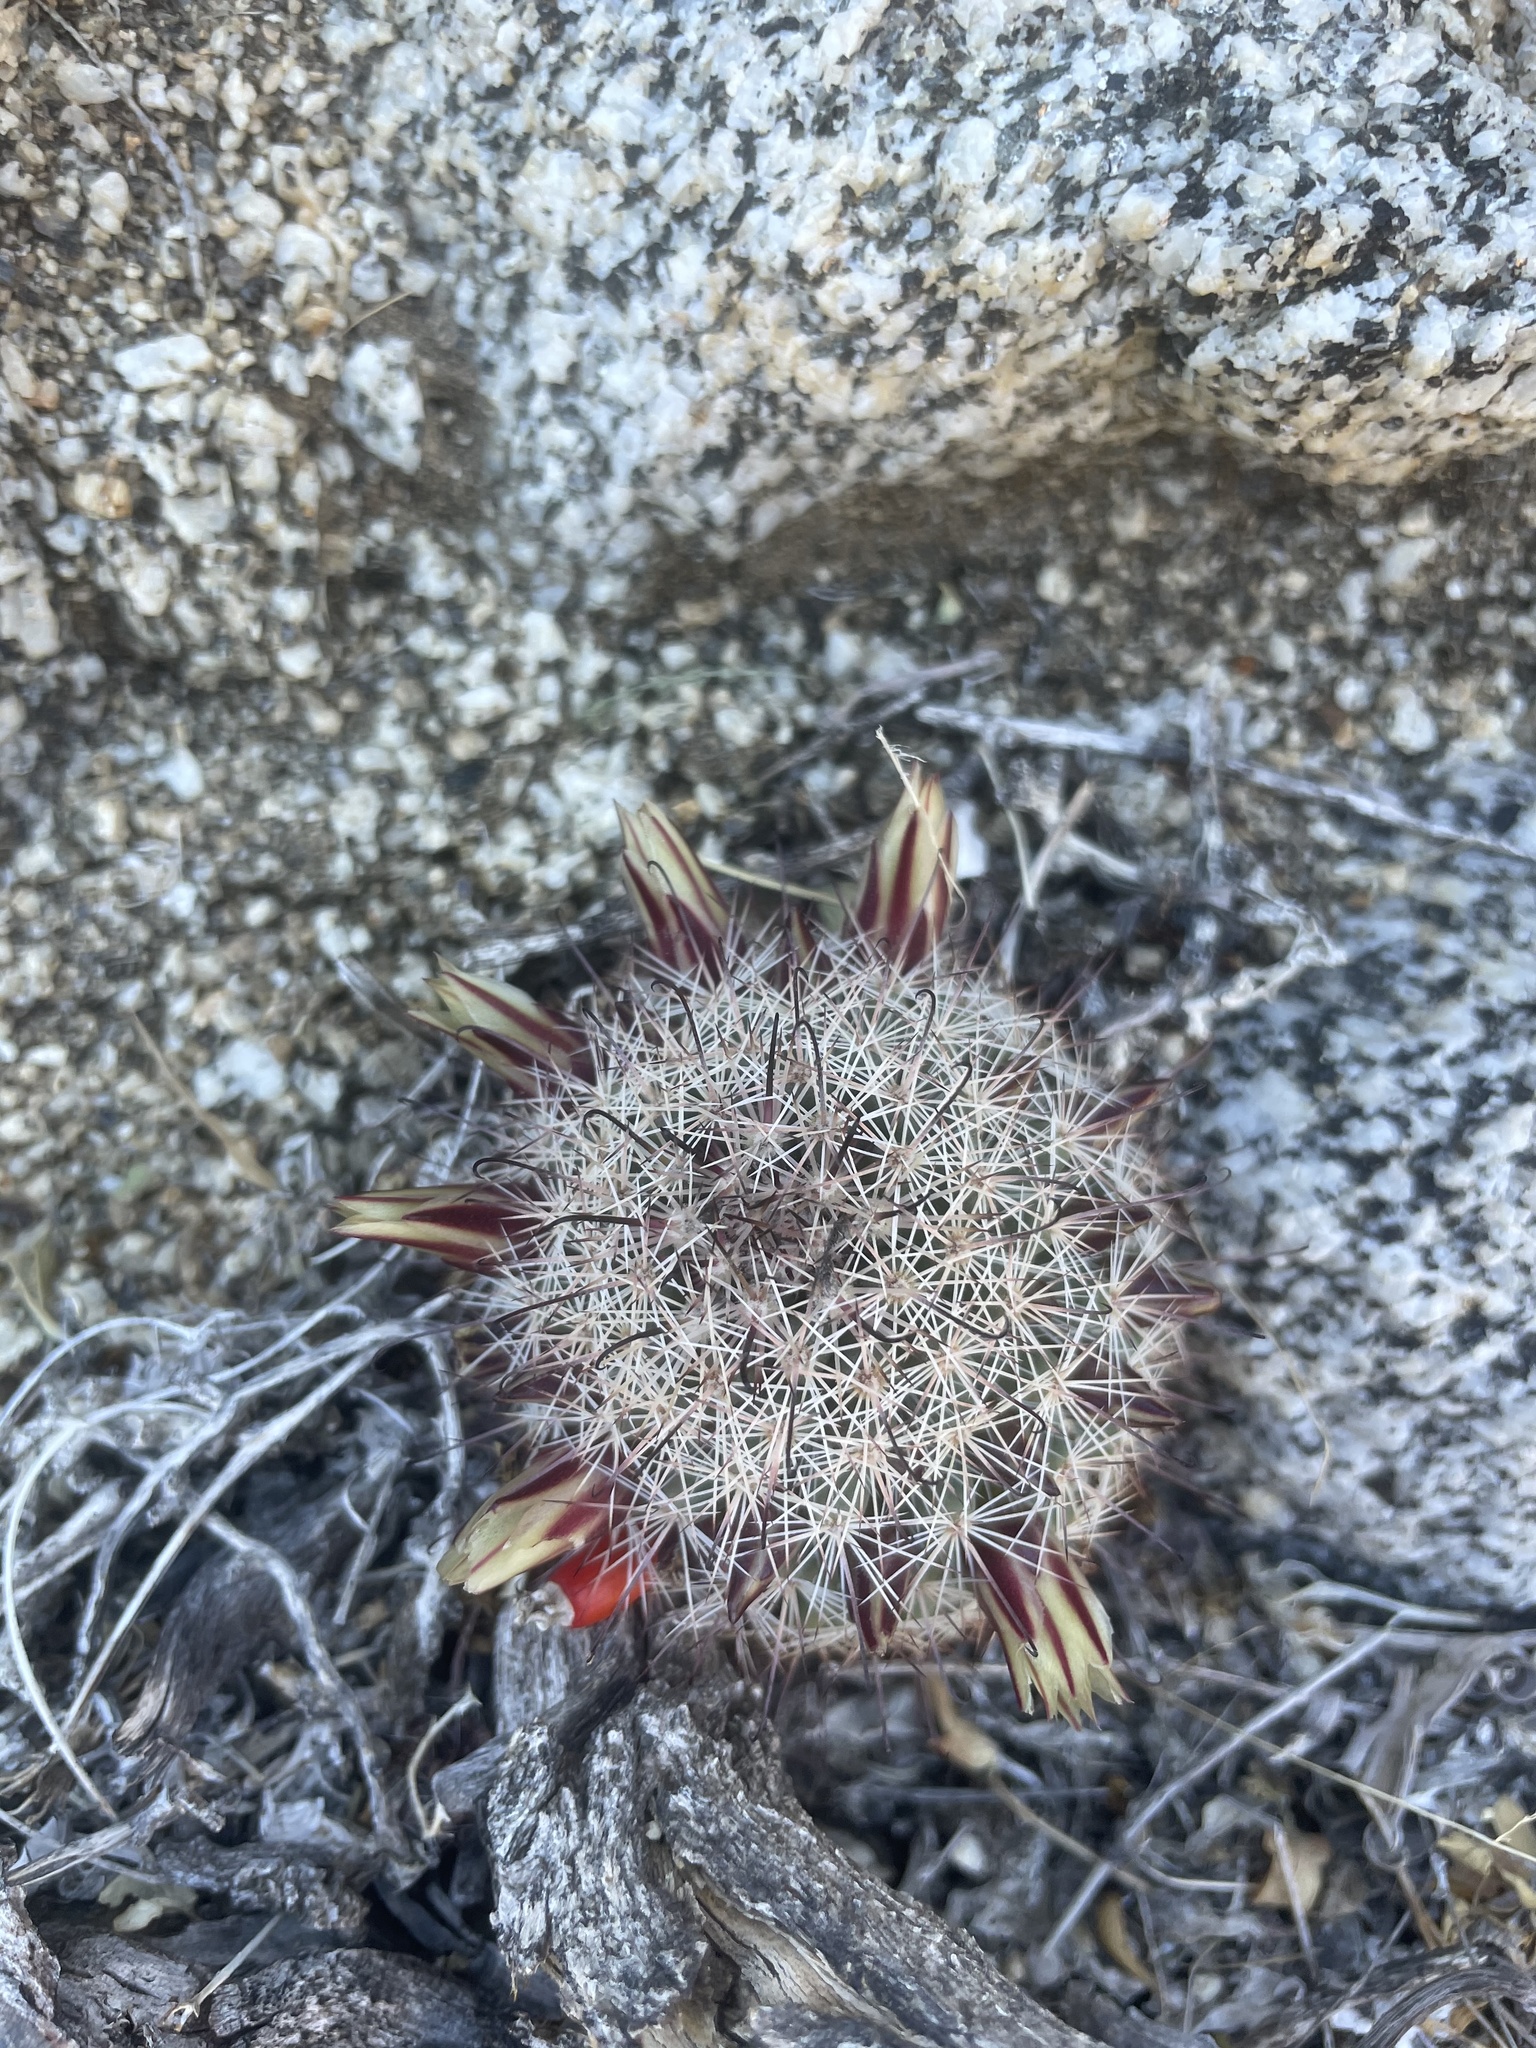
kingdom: Plantae
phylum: Tracheophyta
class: Magnoliopsida
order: Caryophyllales
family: Cactaceae
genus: Cochemiea
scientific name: Cochemiea dioica
